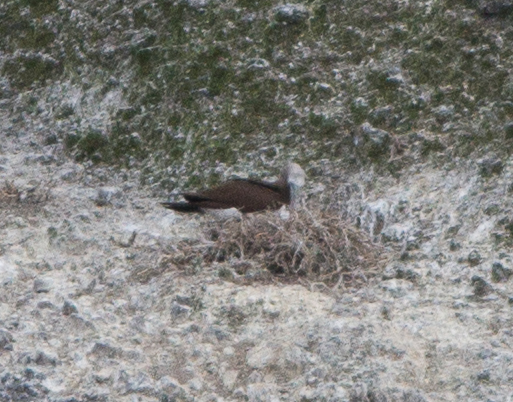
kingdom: Animalia
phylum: Chordata
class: Aves
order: Suliformes
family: Sulidae
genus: Sula
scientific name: Sula leucogaster
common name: Brown booby
